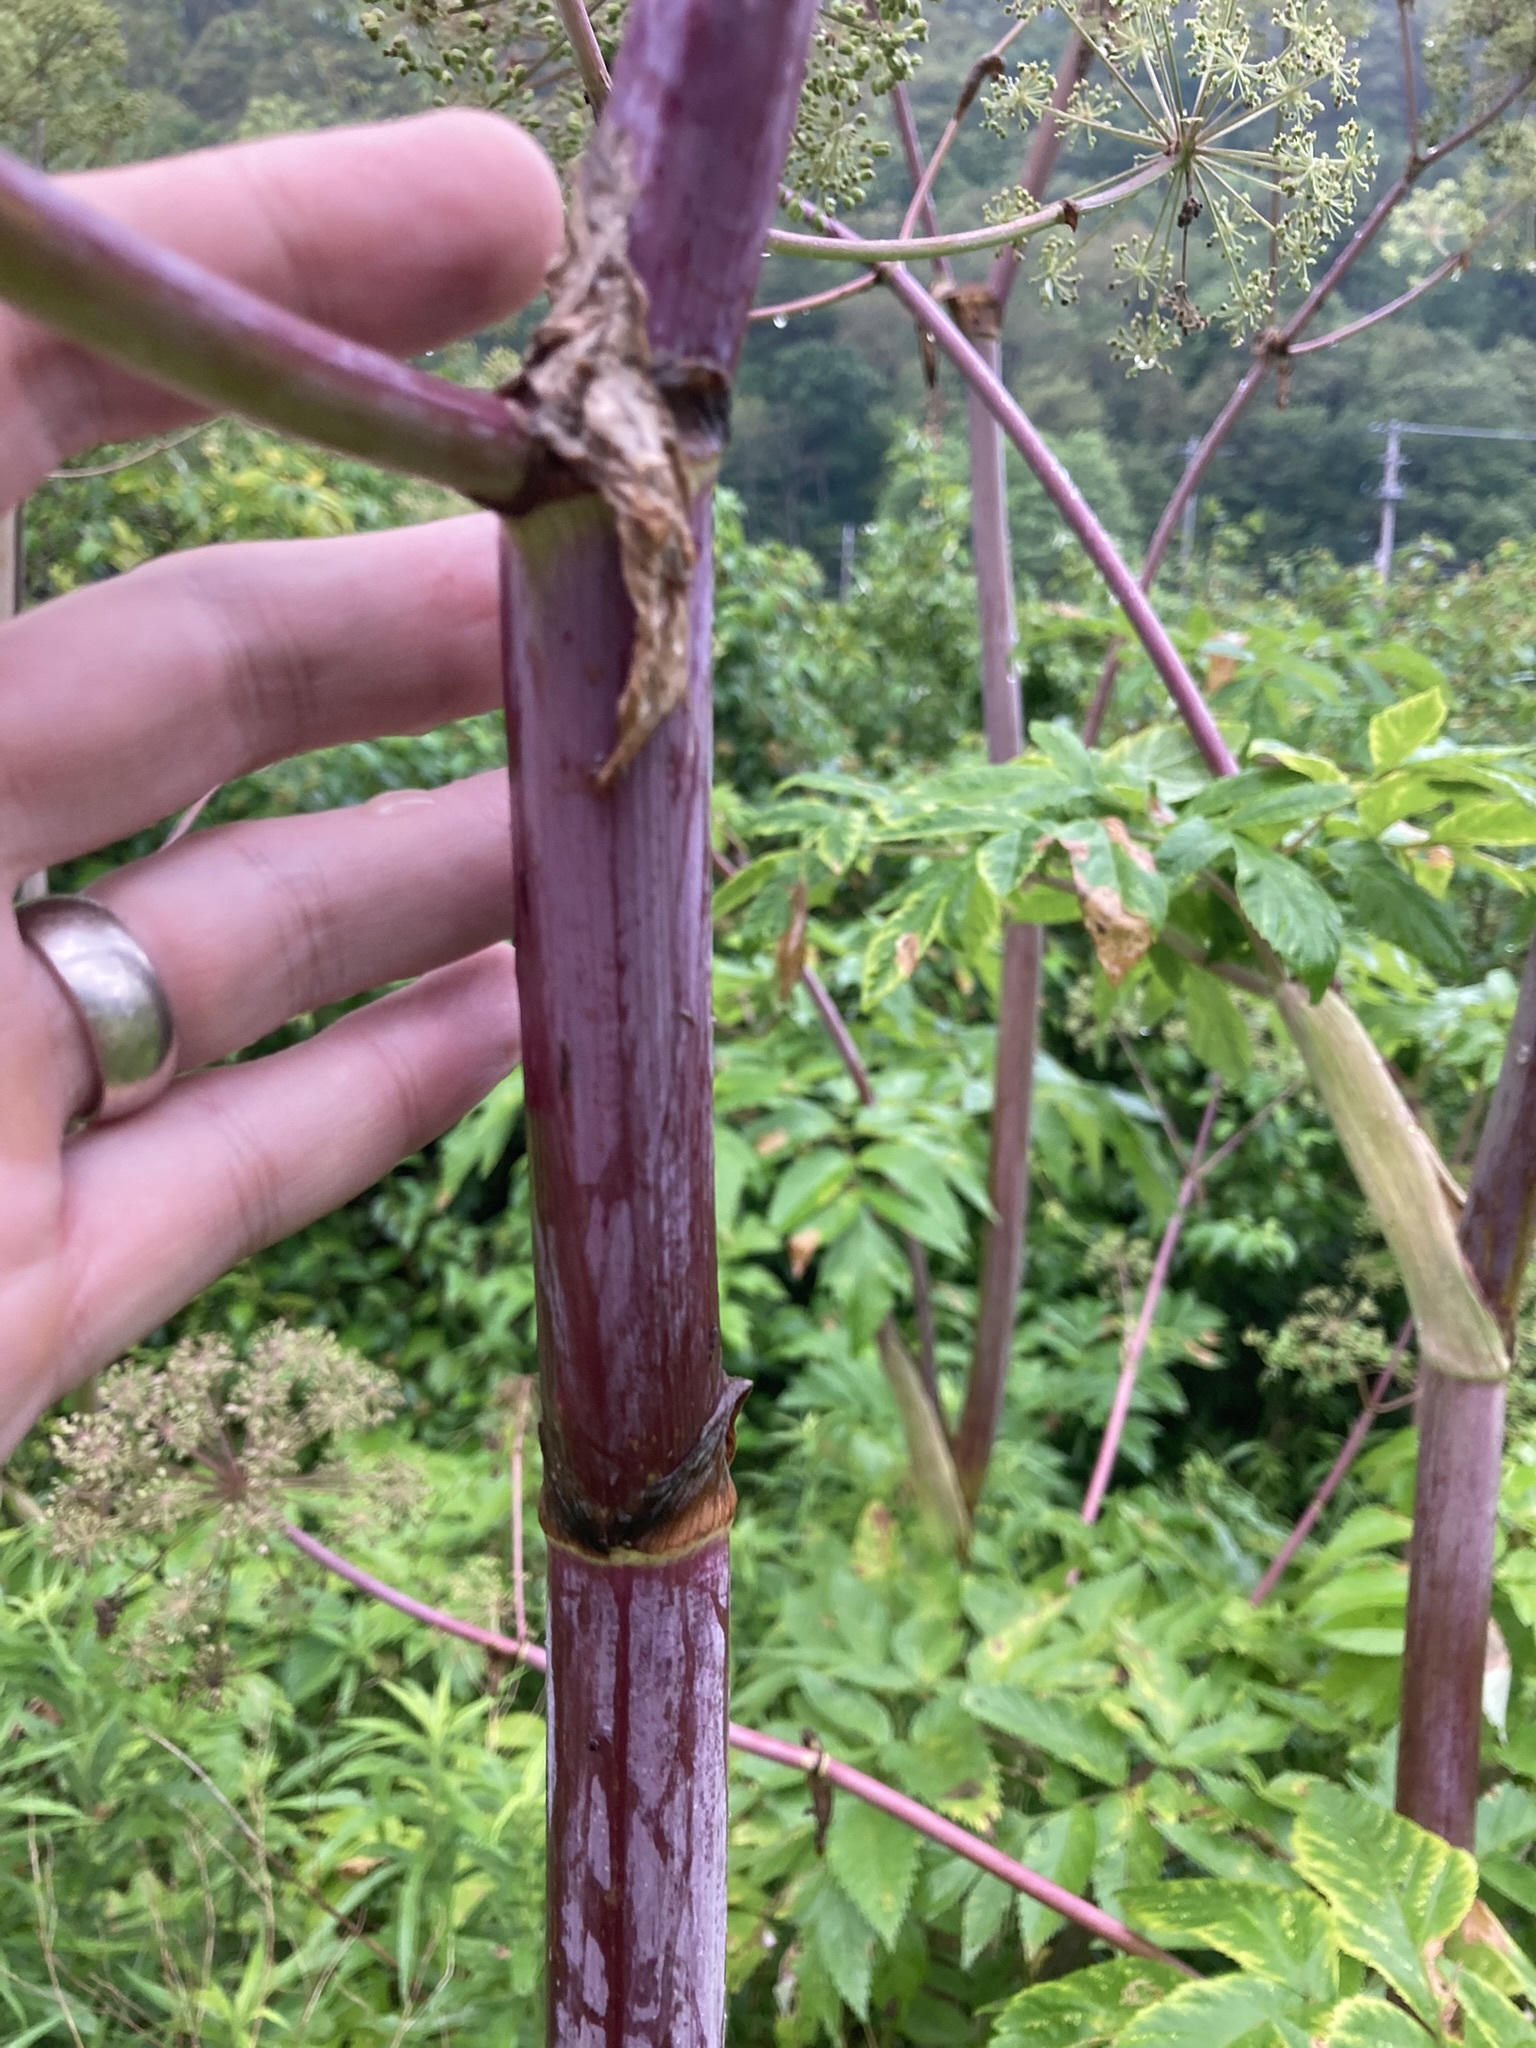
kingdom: Plantae
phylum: Tracheophyta
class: Magnoliopsida
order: Apiales
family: Apiaceae
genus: Angelica
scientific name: Angelica atropurpurea
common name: Great angelica
